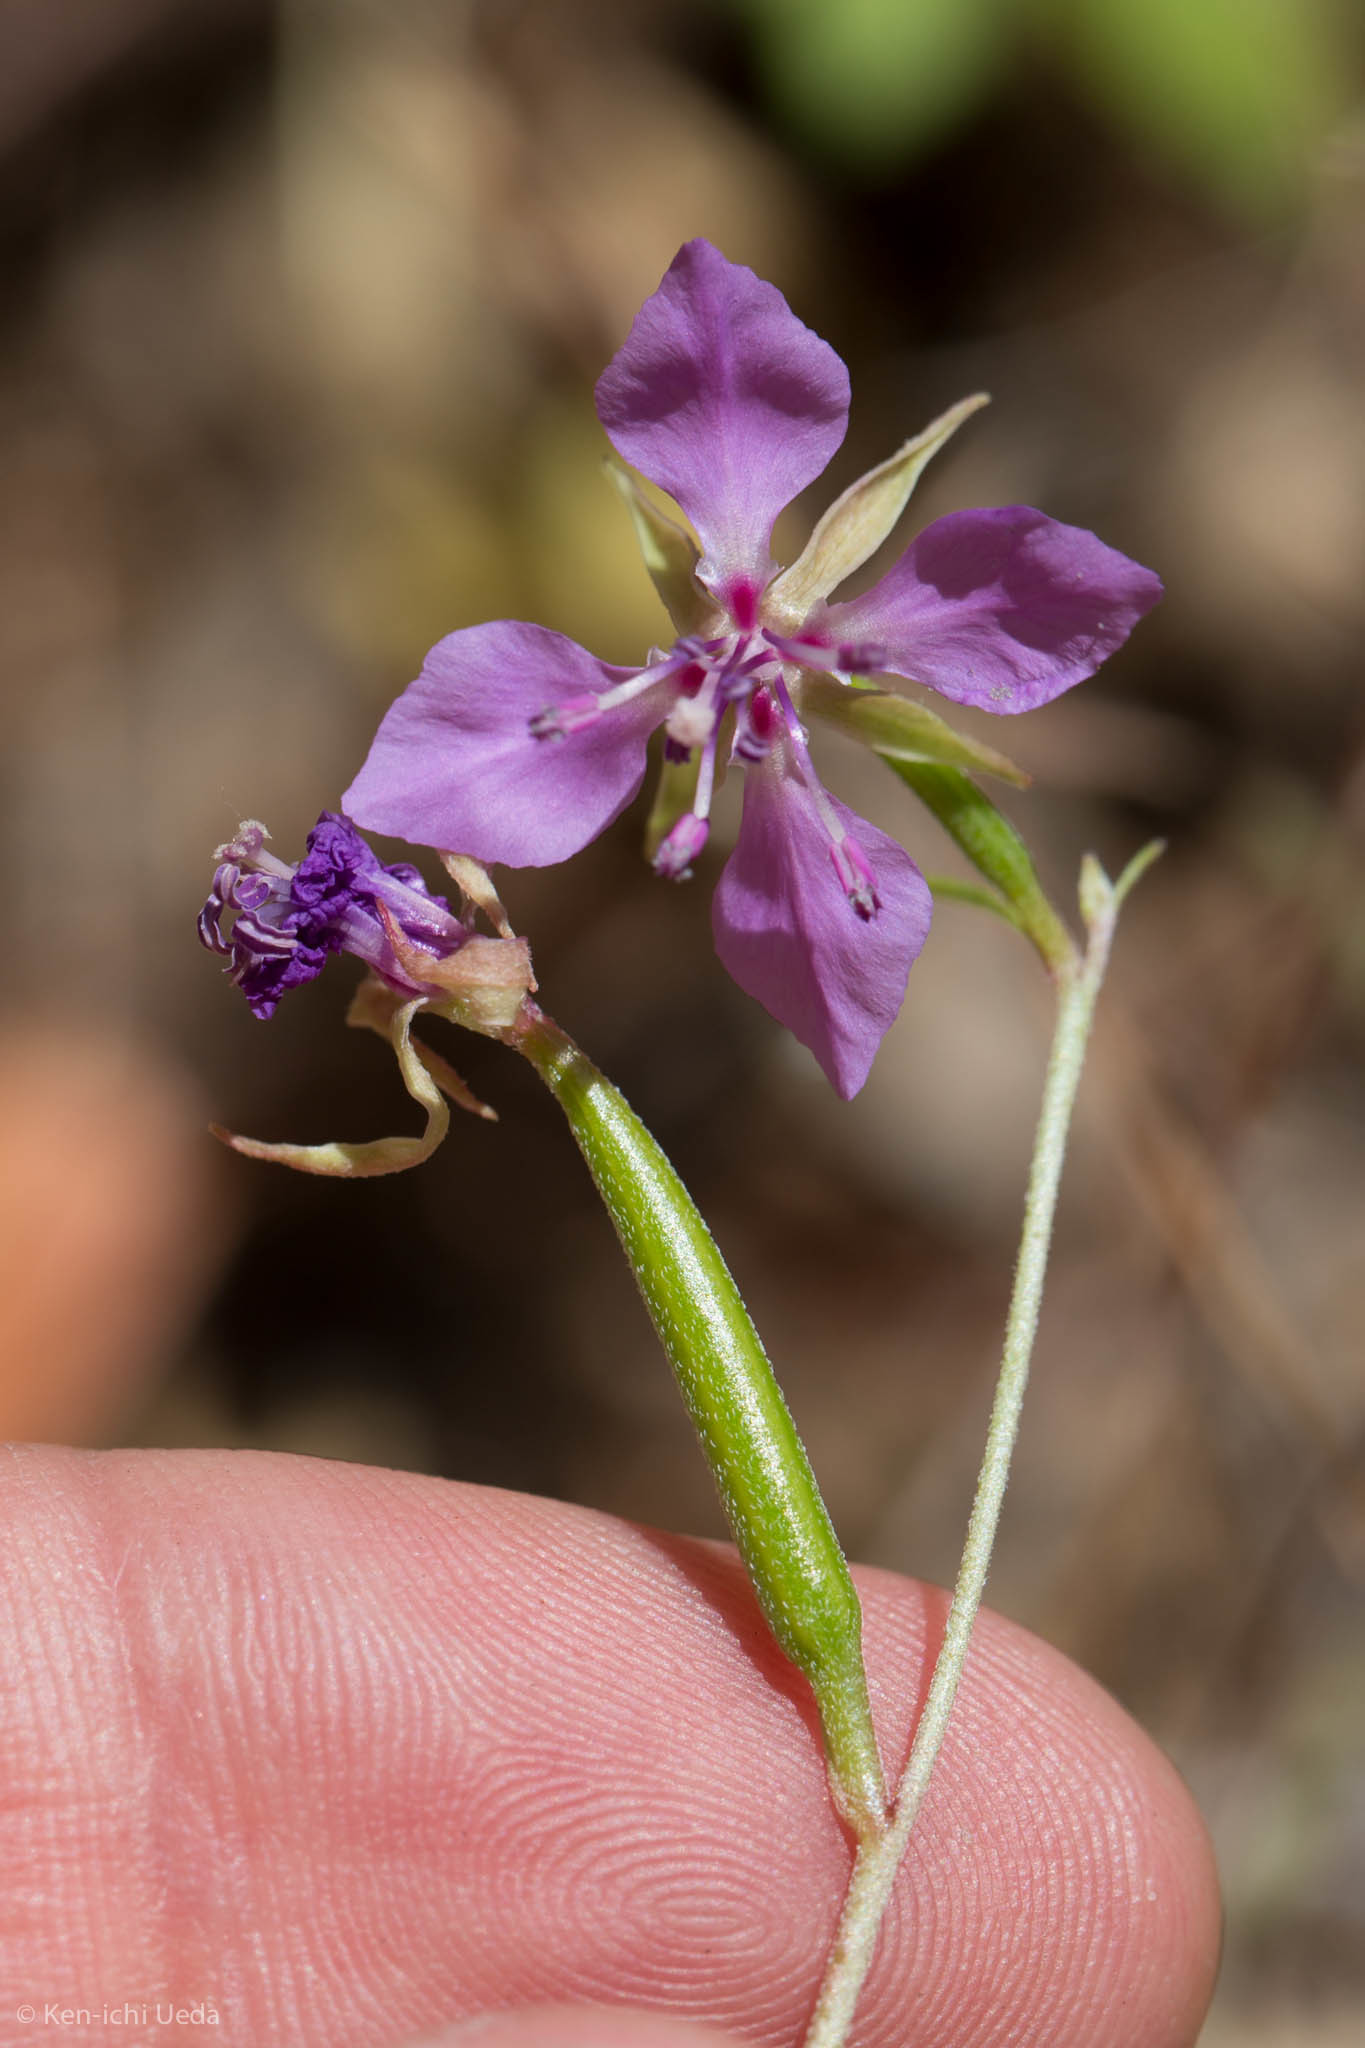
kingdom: Plantae
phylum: Tracheophyta
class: Magnoliopsida
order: Myrtales
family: Onagraceae
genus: Clarkia
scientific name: Clarkia rhomboidea
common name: Broadleaf clarkia
